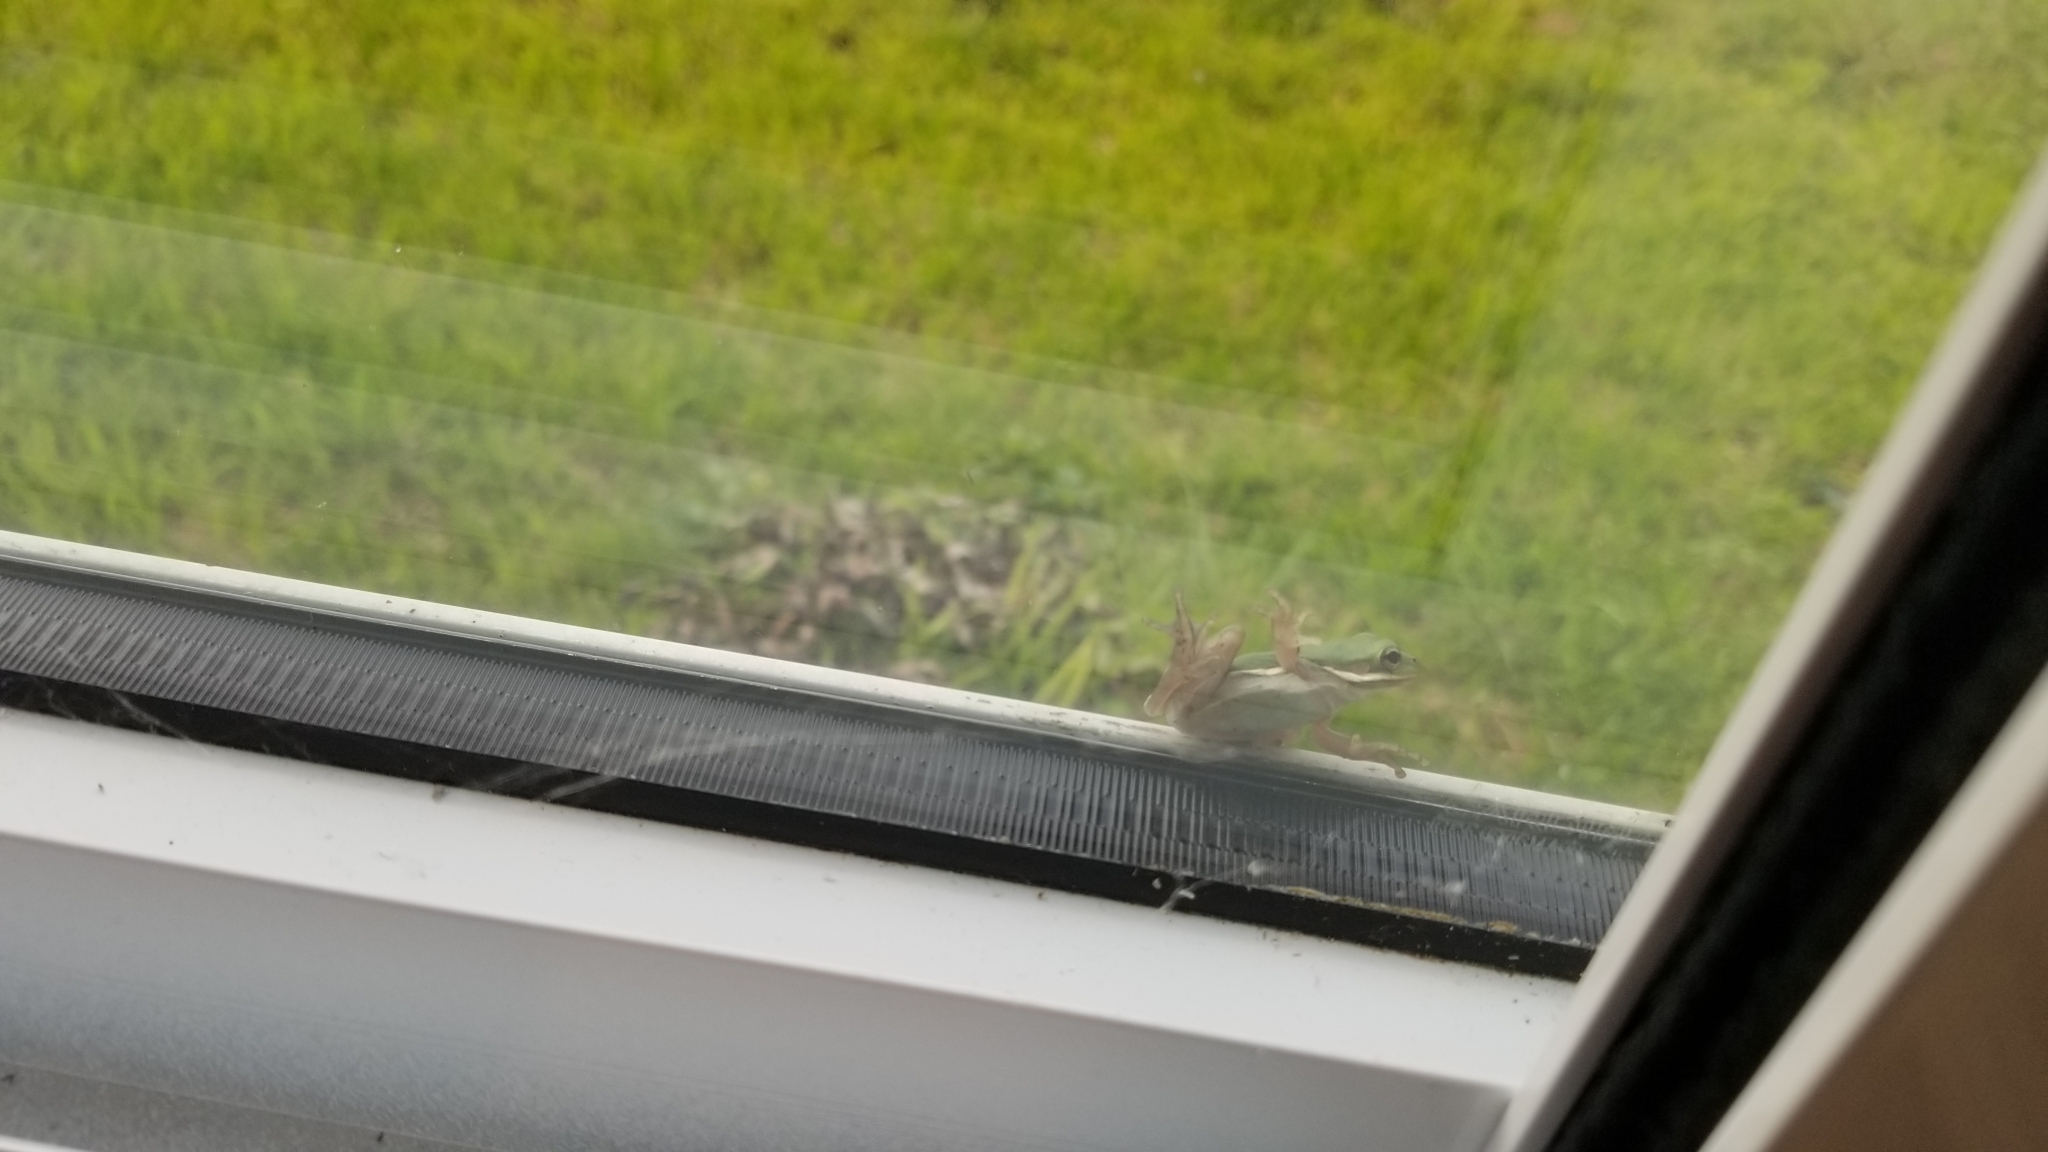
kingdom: Animalia
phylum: Chordata
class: Amphibia
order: Anura
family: Hylidae
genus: Dryophytes
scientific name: Dryophytes cinereus
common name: Green treefrog
